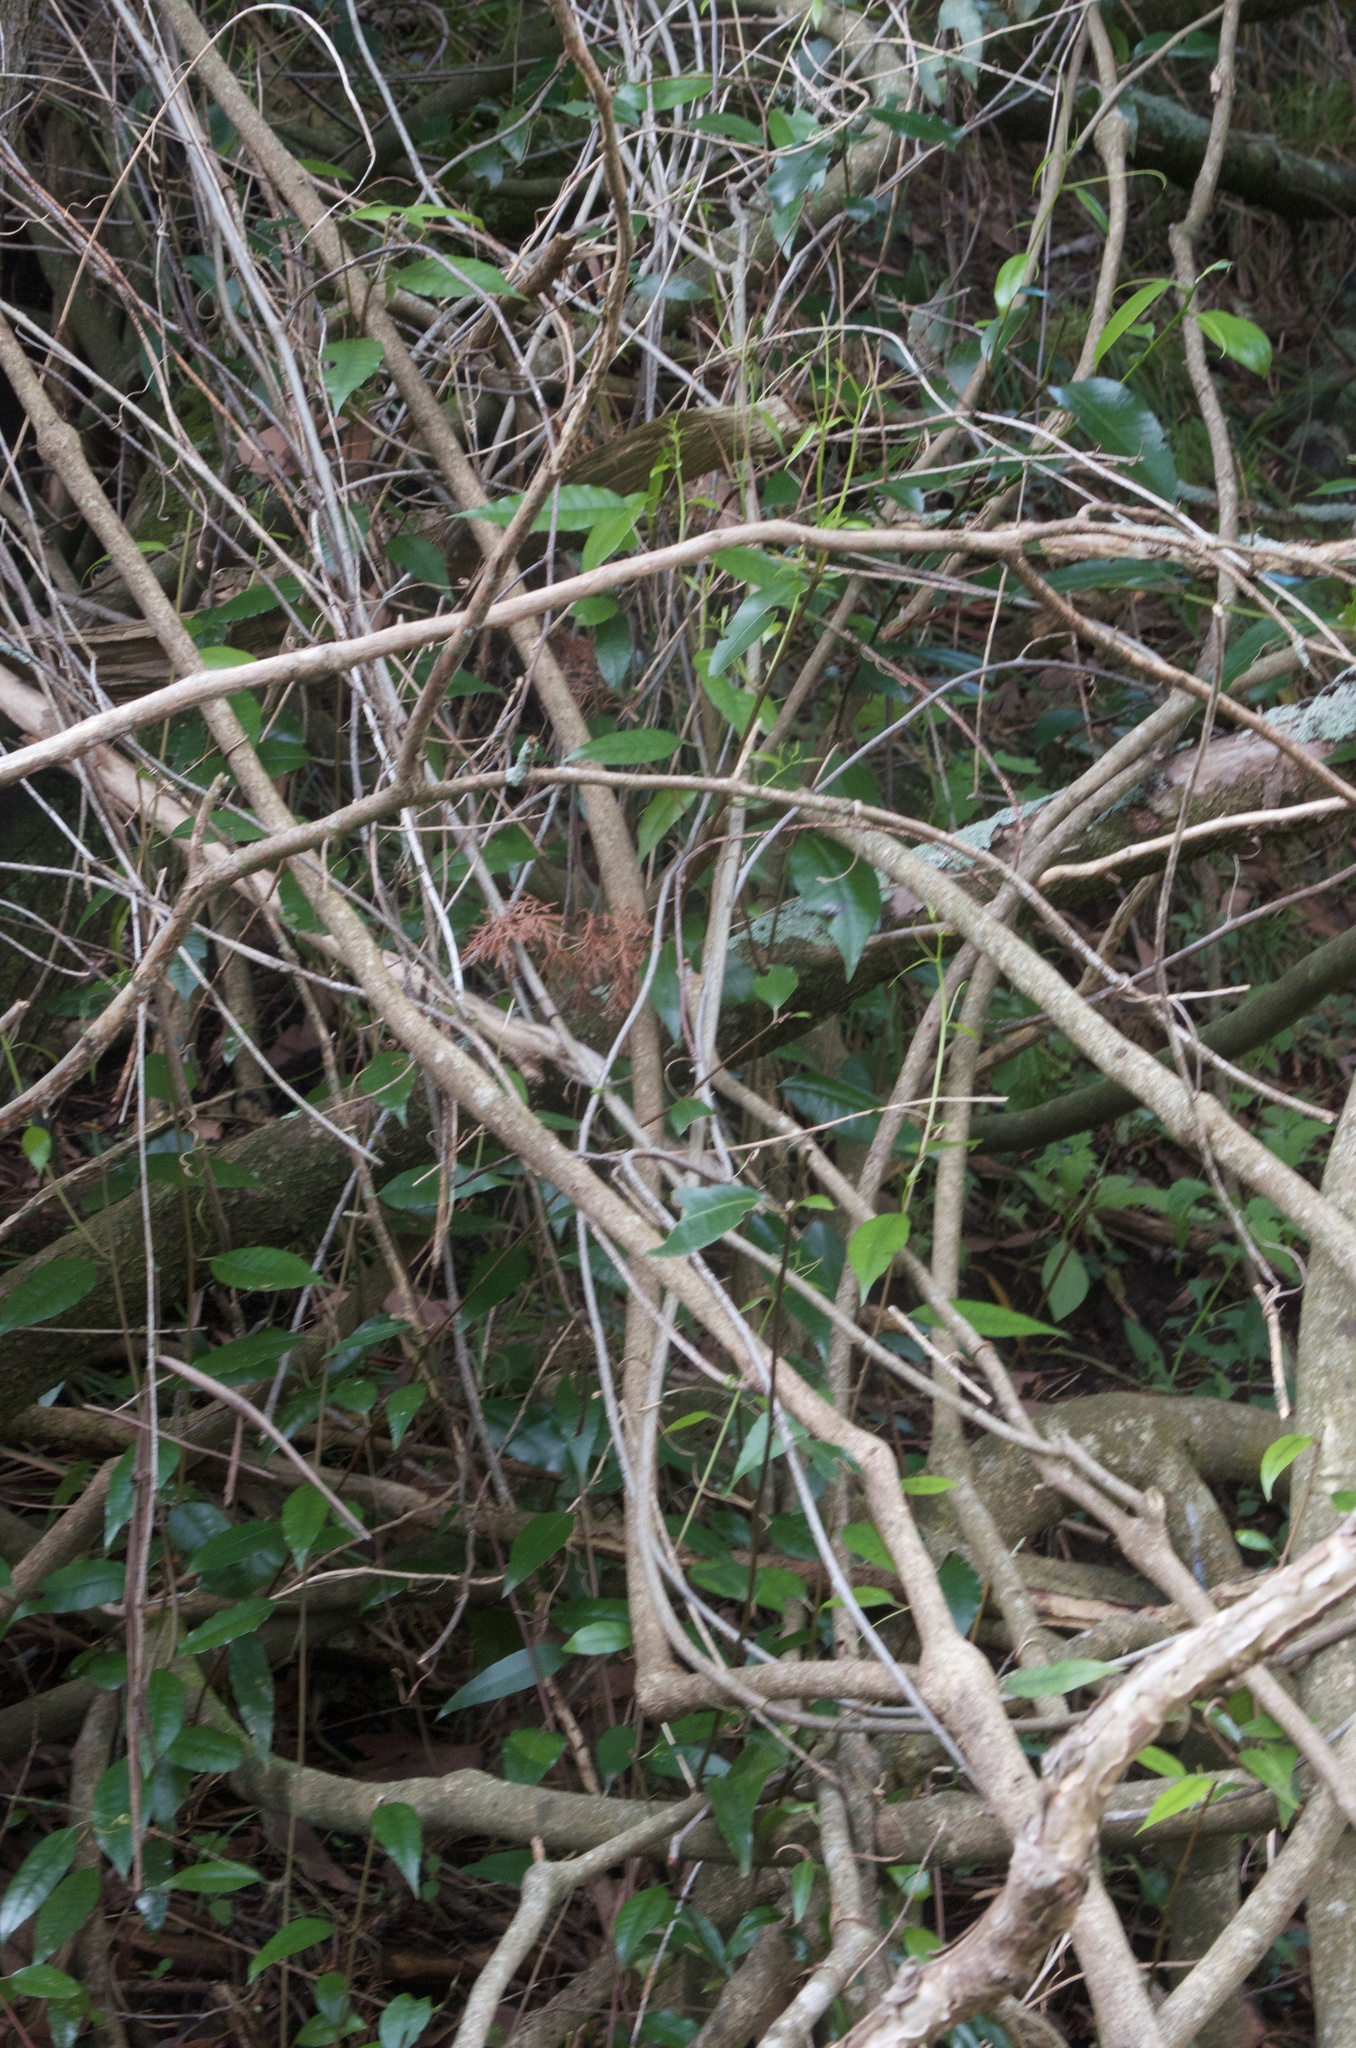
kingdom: Plantae
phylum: Tracheophyta
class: Magnoliopsida
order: Malpighiales
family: Passifloraceae
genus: Passiflora
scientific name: Passiflora tetrandra
